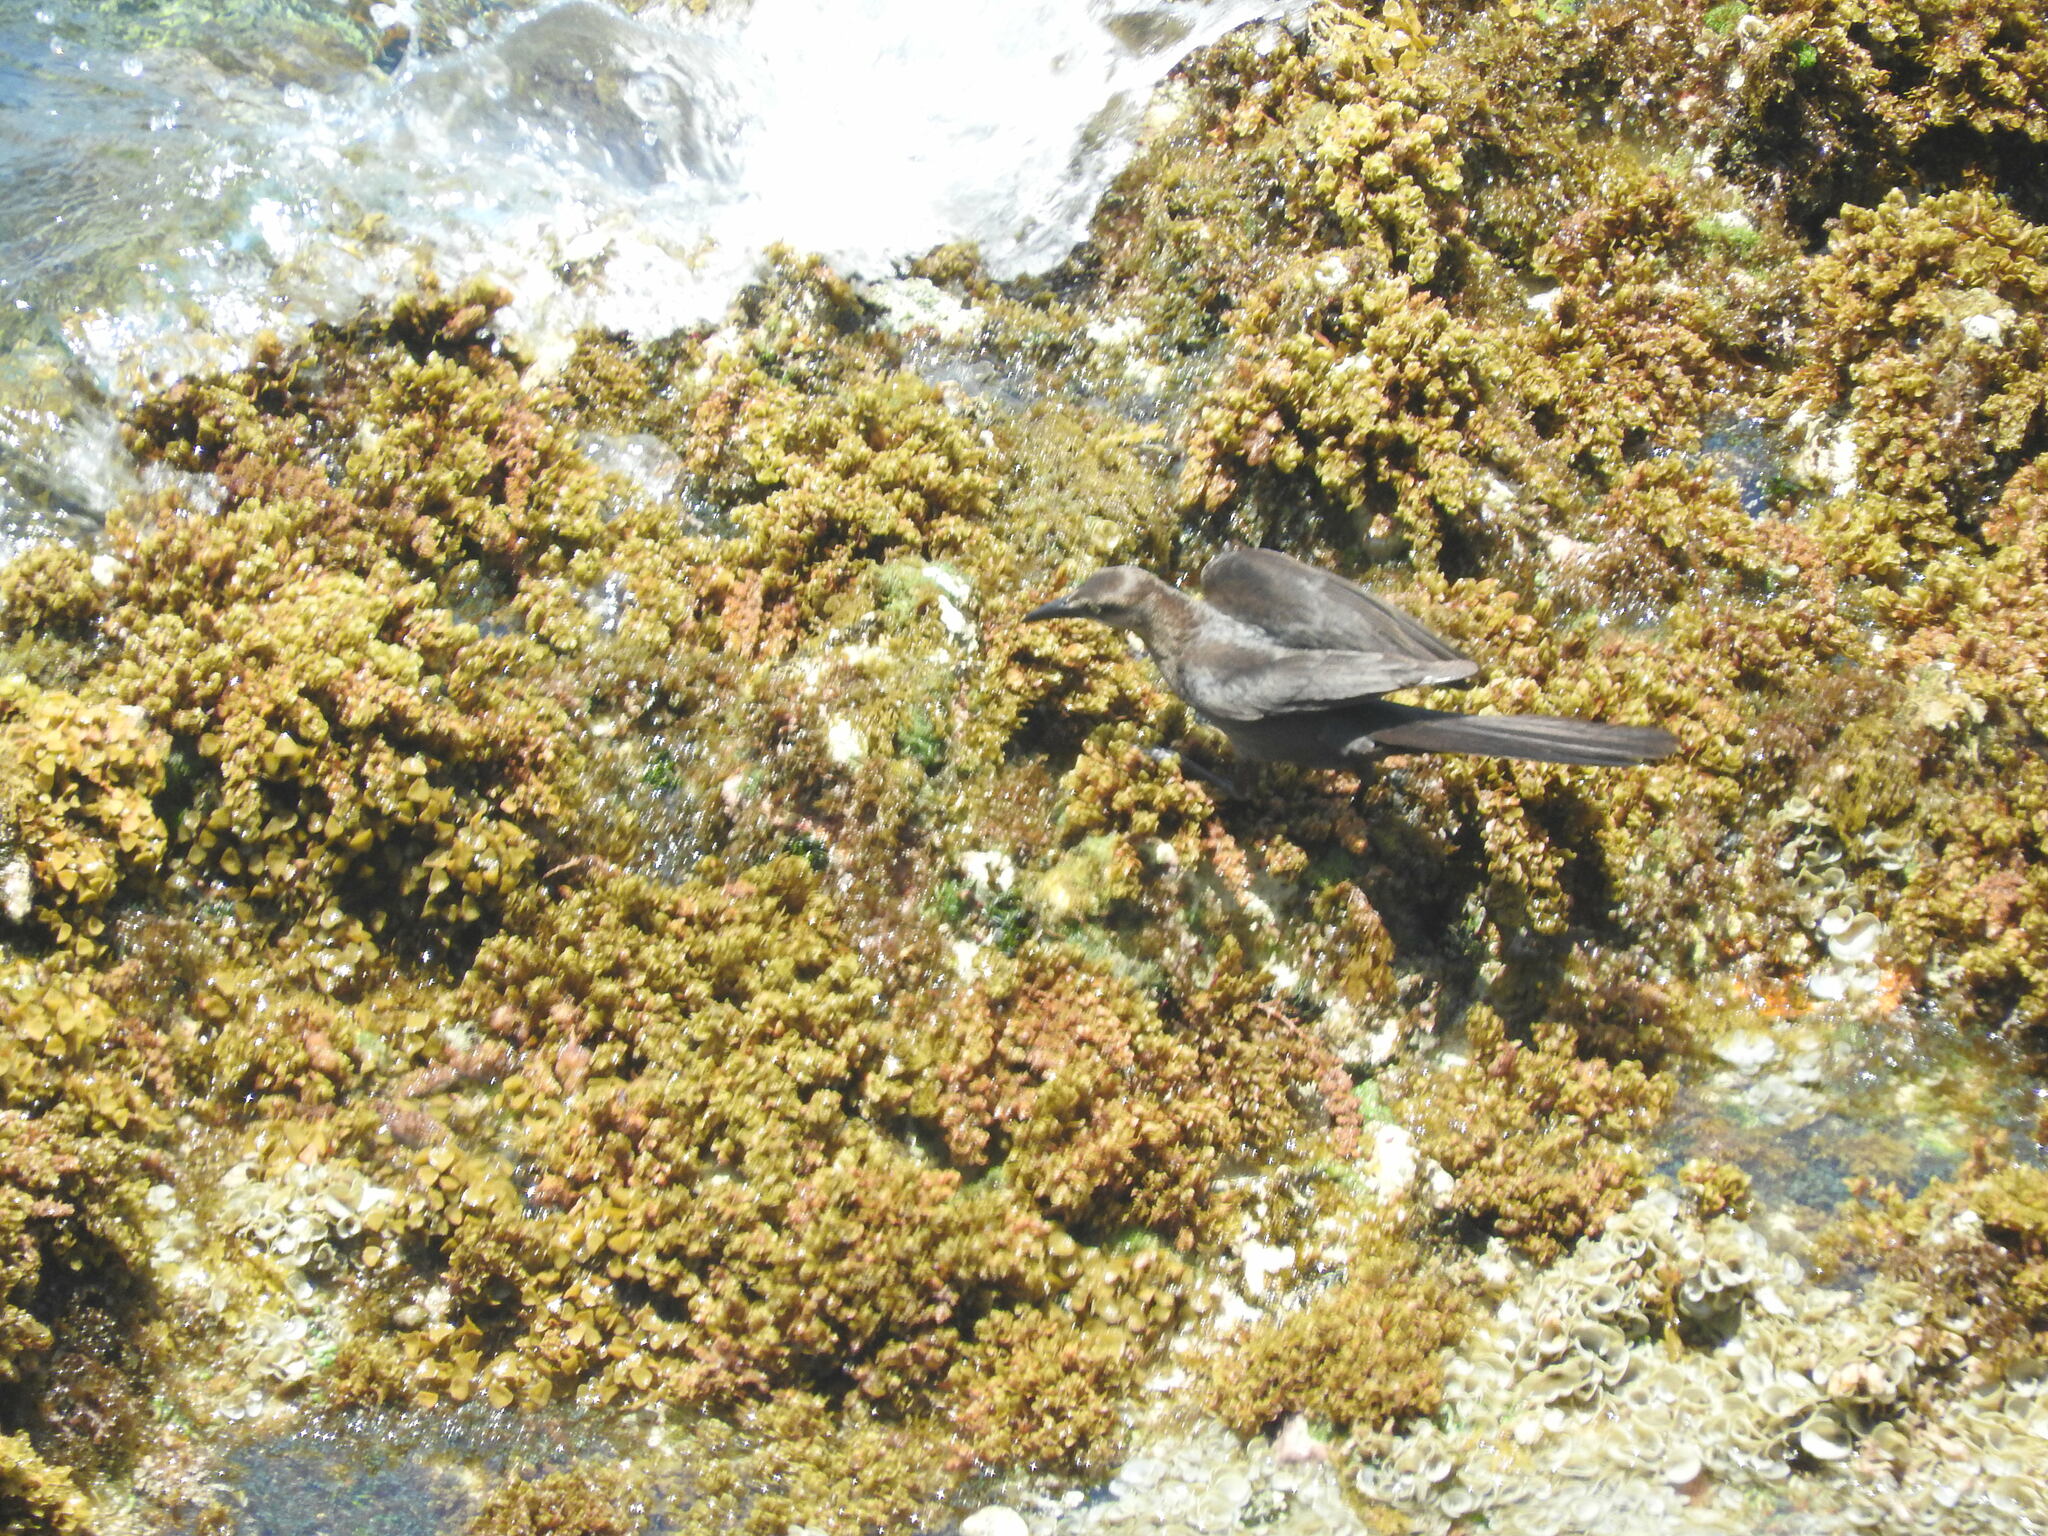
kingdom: Animalia
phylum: Chordata
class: Aves
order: Passeriformes
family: Icteridae
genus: Quiscalus
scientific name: Quiscalus mexicanus
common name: Great-tailed grackle
